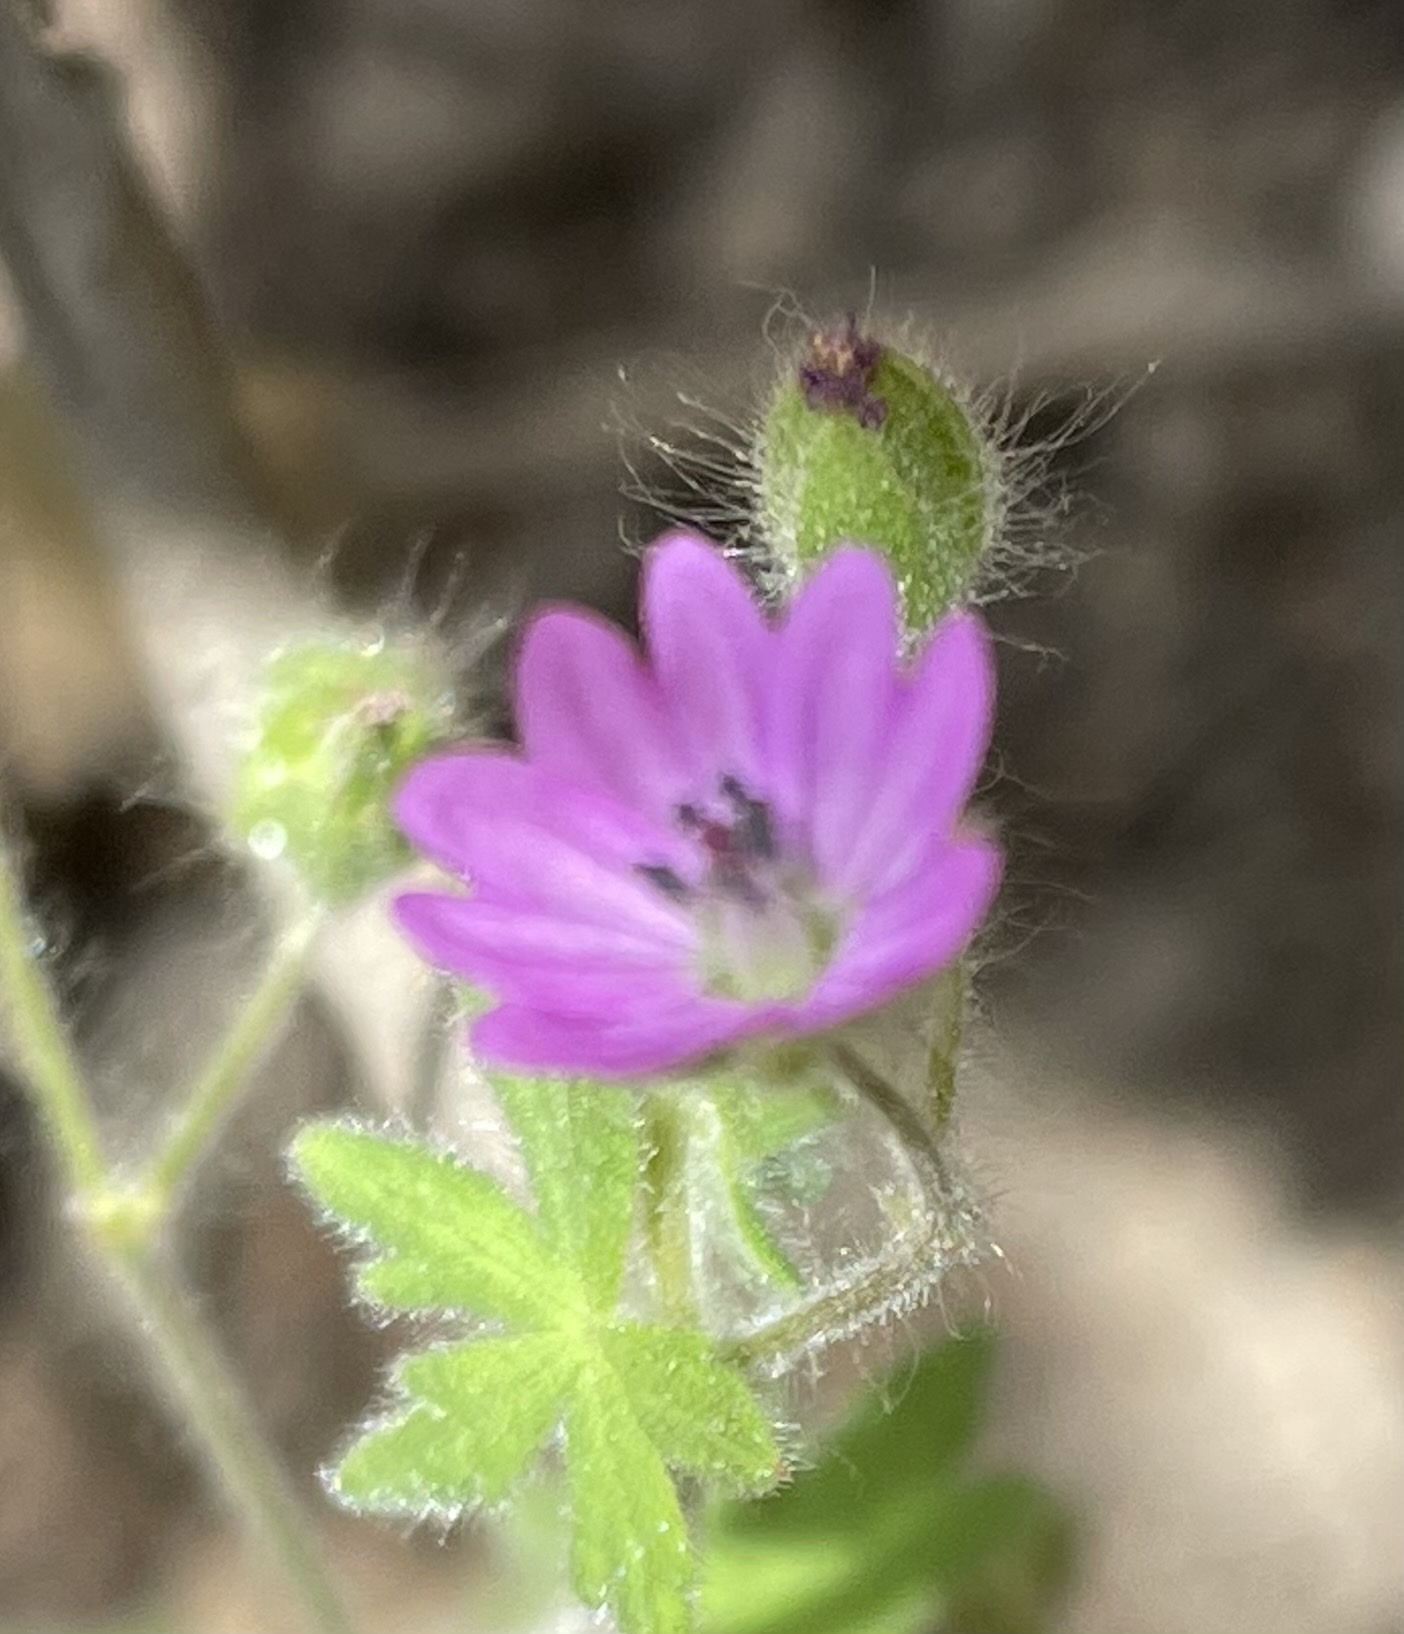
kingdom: Plantae
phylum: Tracheophyta
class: Magnoliopsida
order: Geraniales
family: Geraniaceae
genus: Geranium
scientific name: Geranium molle
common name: Dove's-foot crane's-bill
